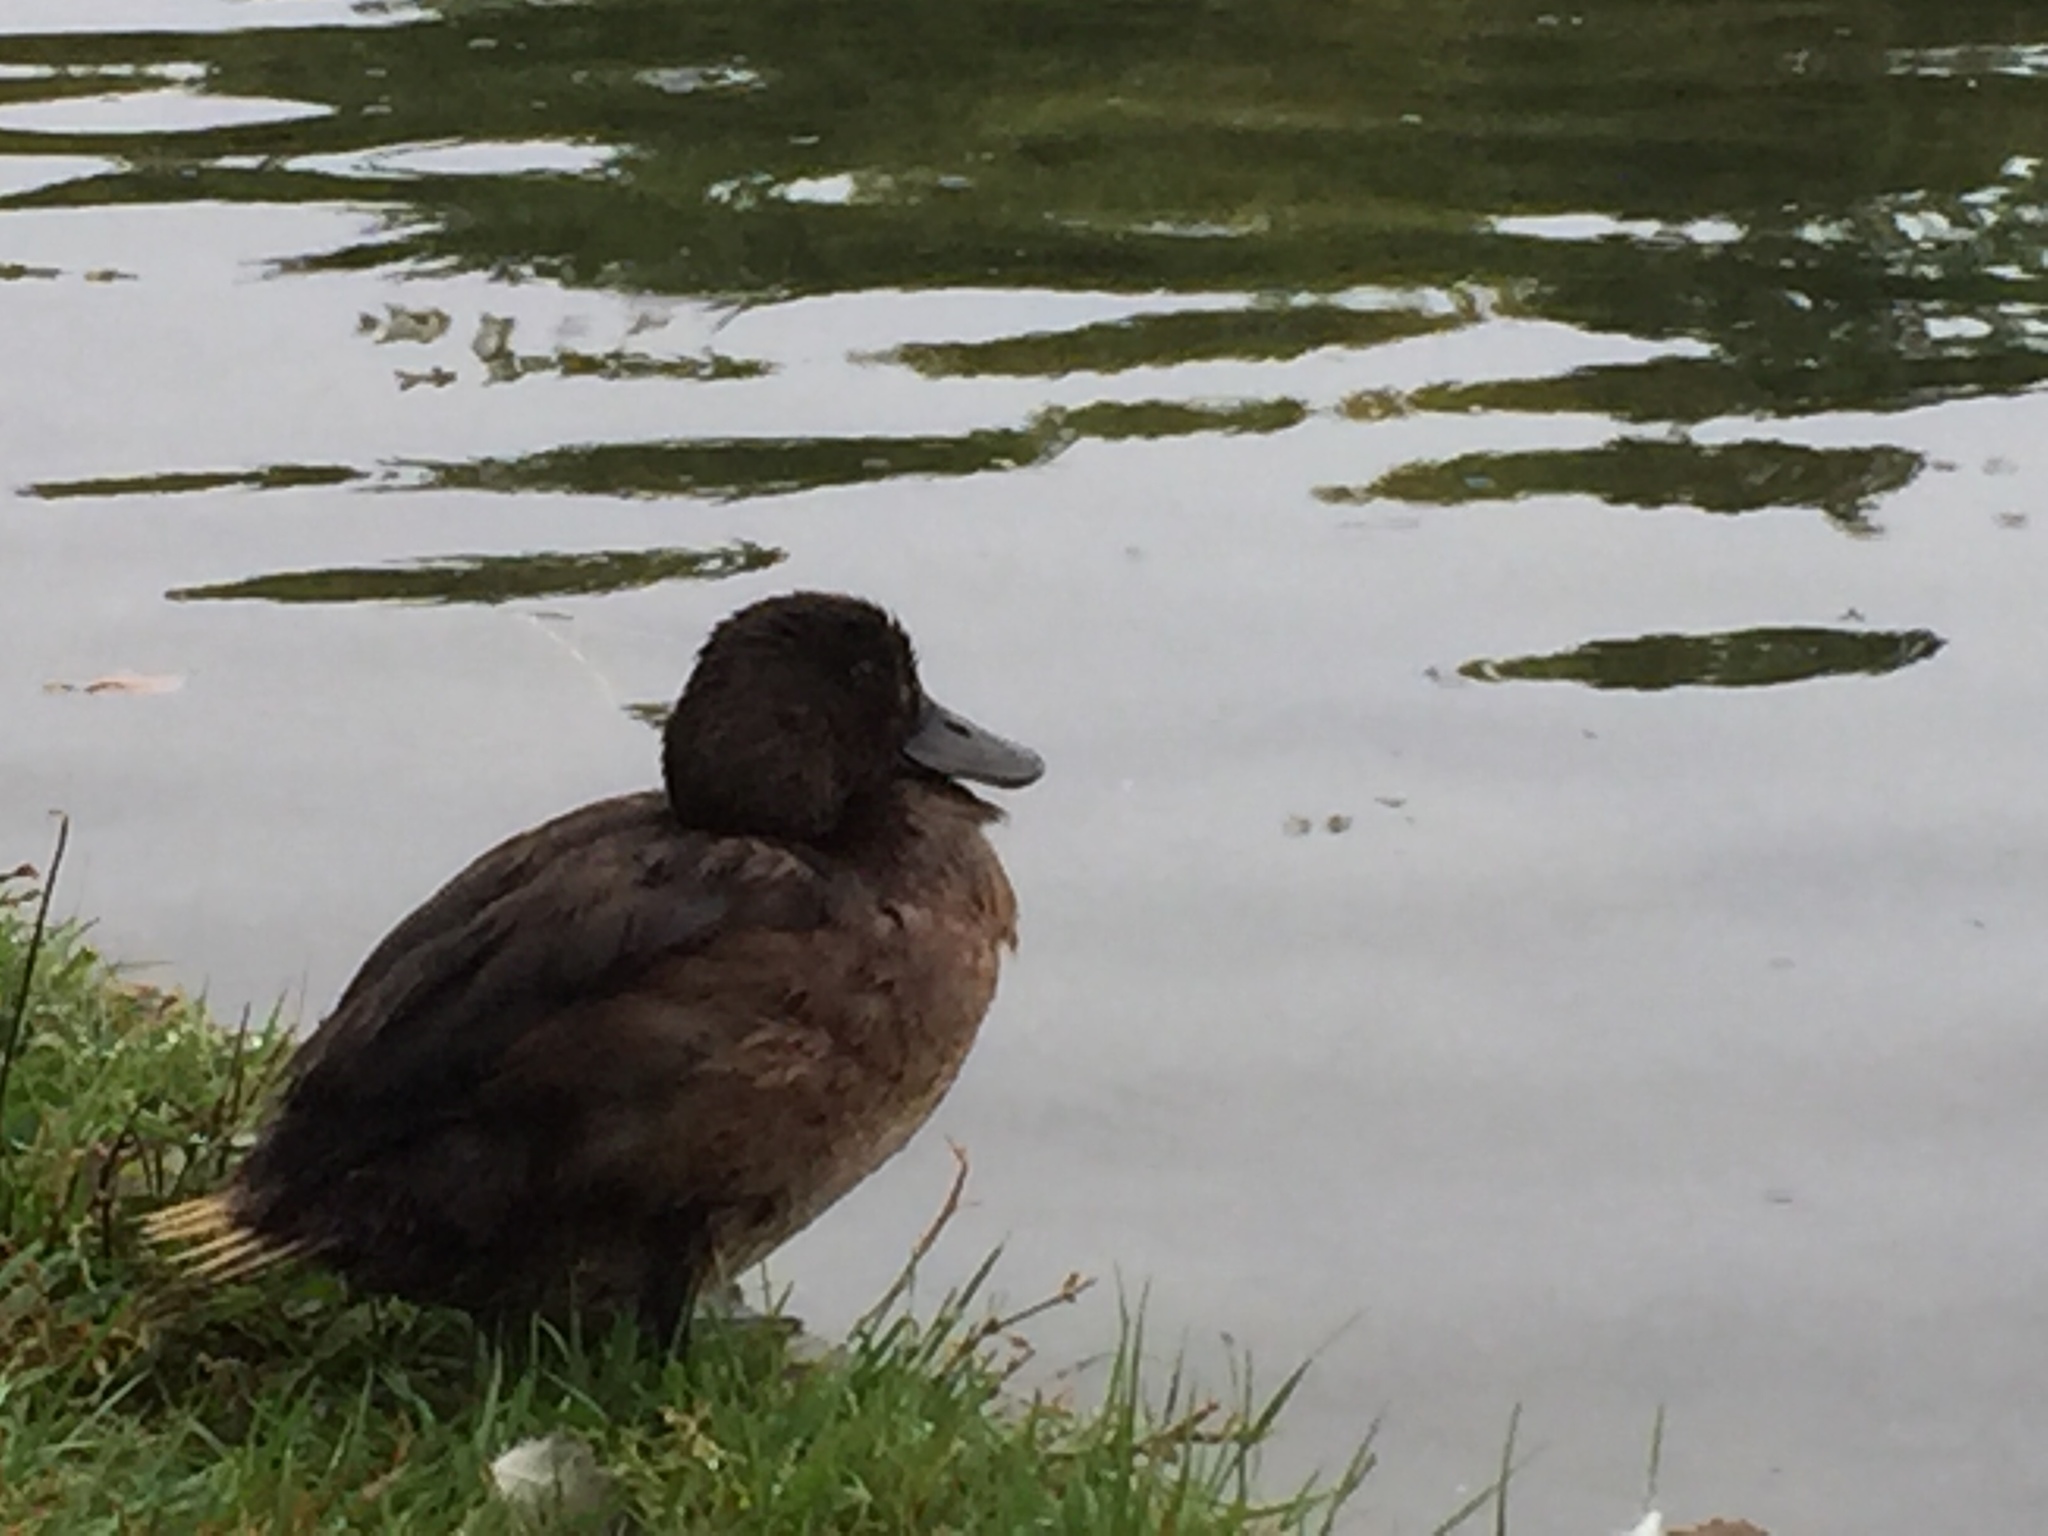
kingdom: Animalia
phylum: Chordata
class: Aves
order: Anseriformes
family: Anatidae
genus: Aythya
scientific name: Aythya novaeseelandiae
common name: New zealand scaup
